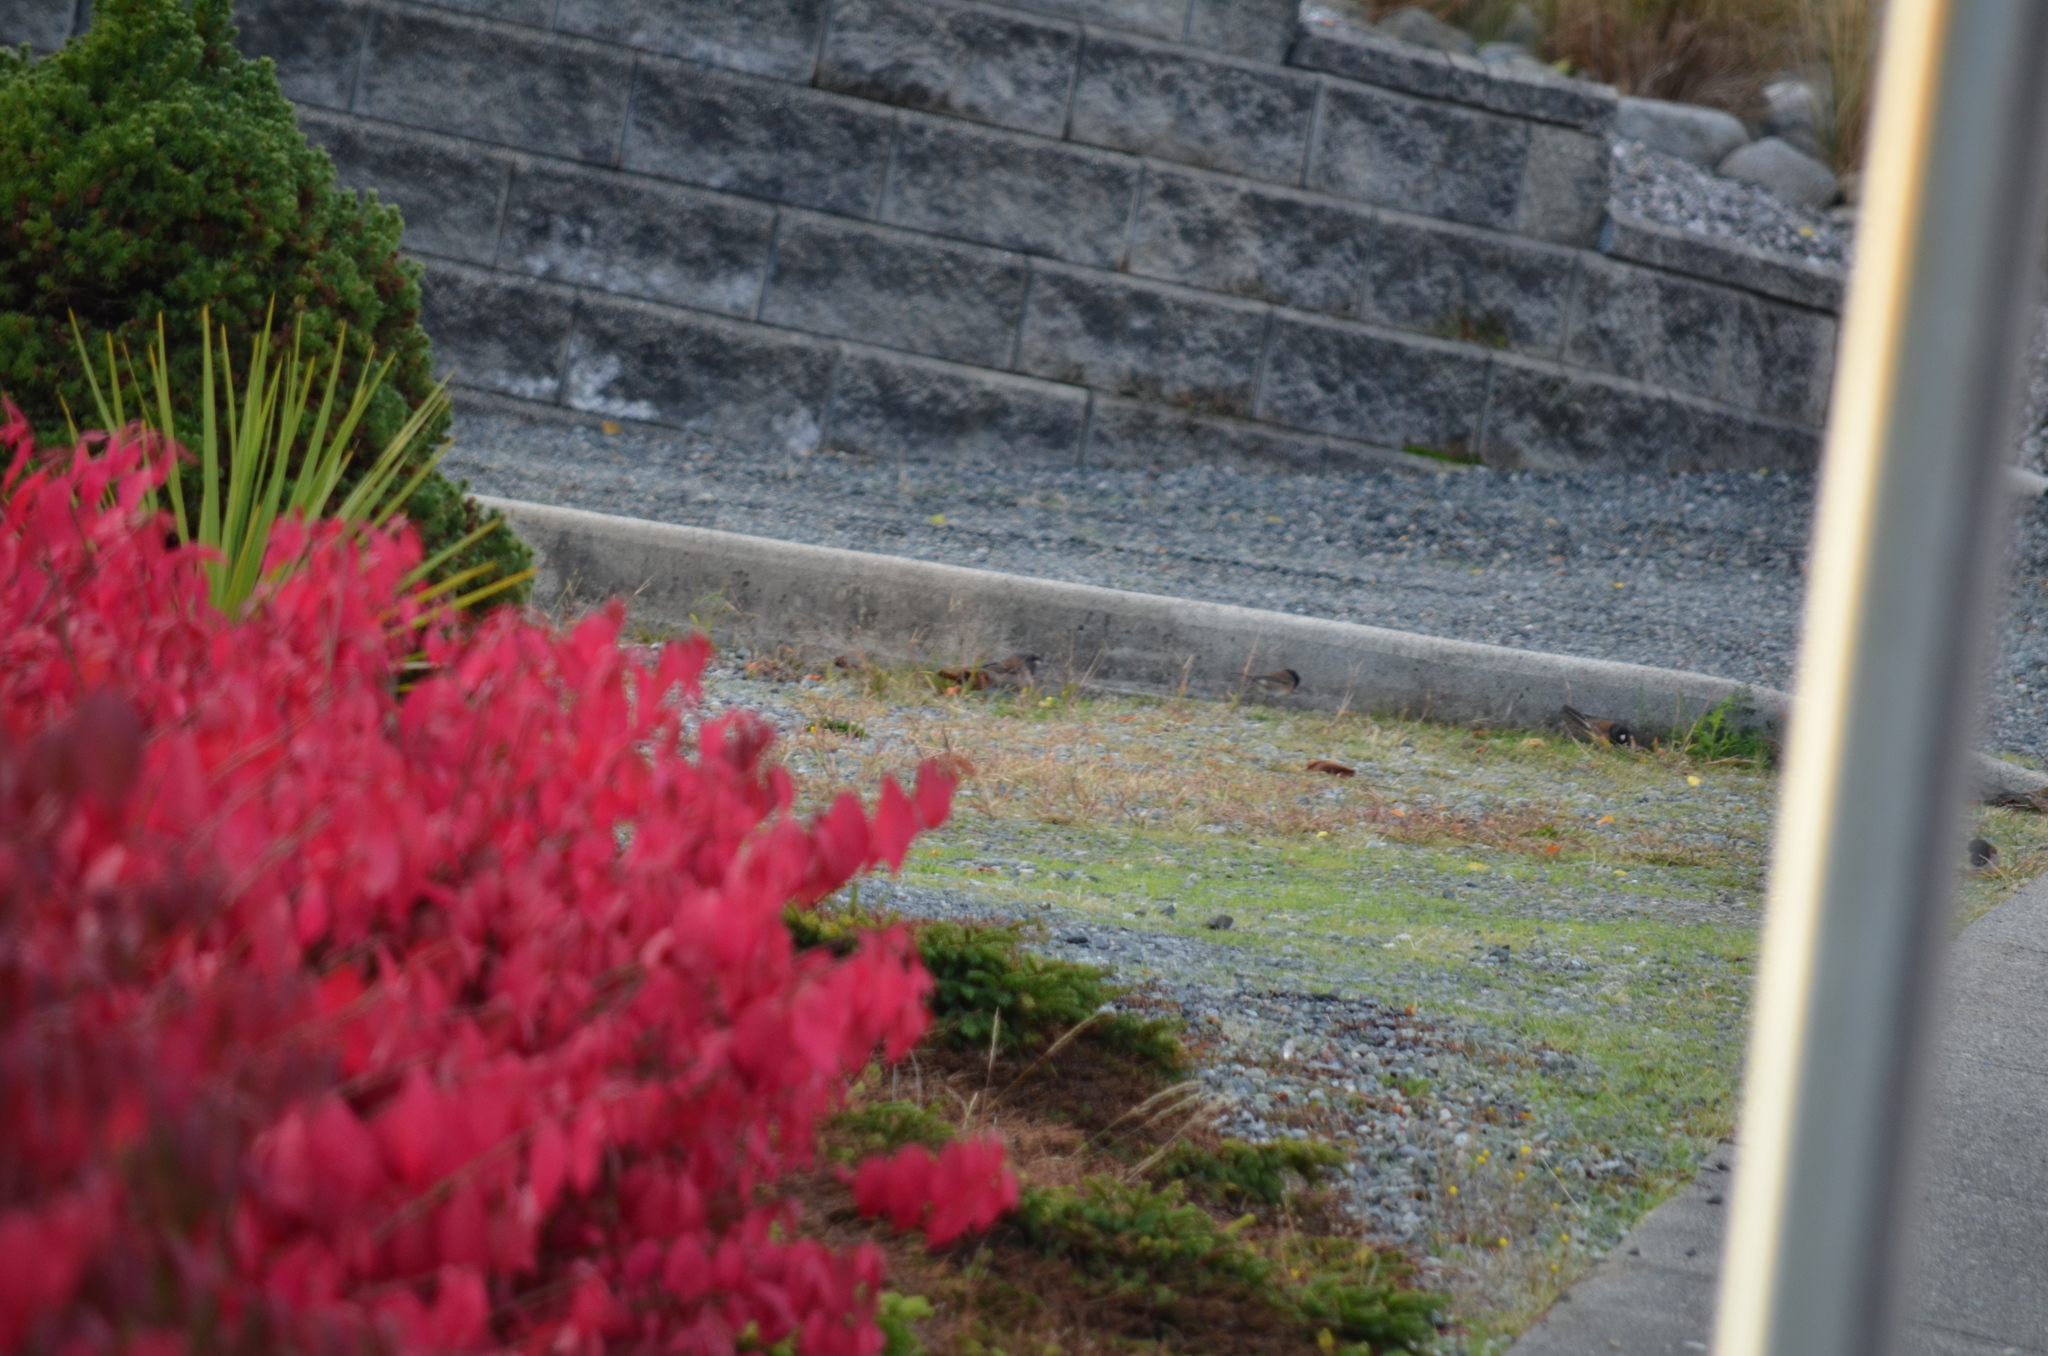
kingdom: Animalia
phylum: Chordata
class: Aves
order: Passeriformes
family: Passerellidae
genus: Junco
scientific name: Junco hyemalis
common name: Dark-eyed junco
